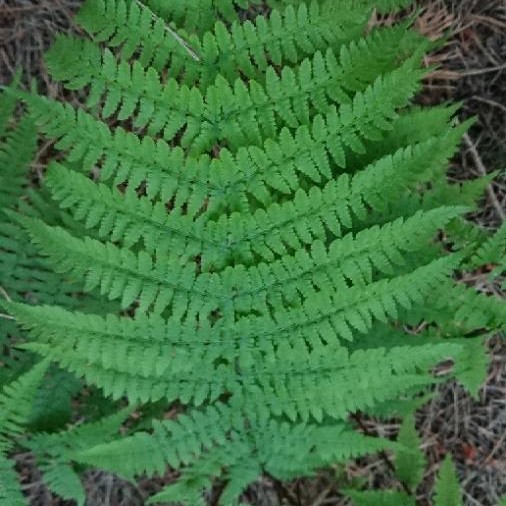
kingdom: Plantae
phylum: Tracheophyta
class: Polypodiopsida
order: Polypodiales
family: Athyriaceae
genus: Athyrium
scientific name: Athyrium filix-femina
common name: Lady fern
